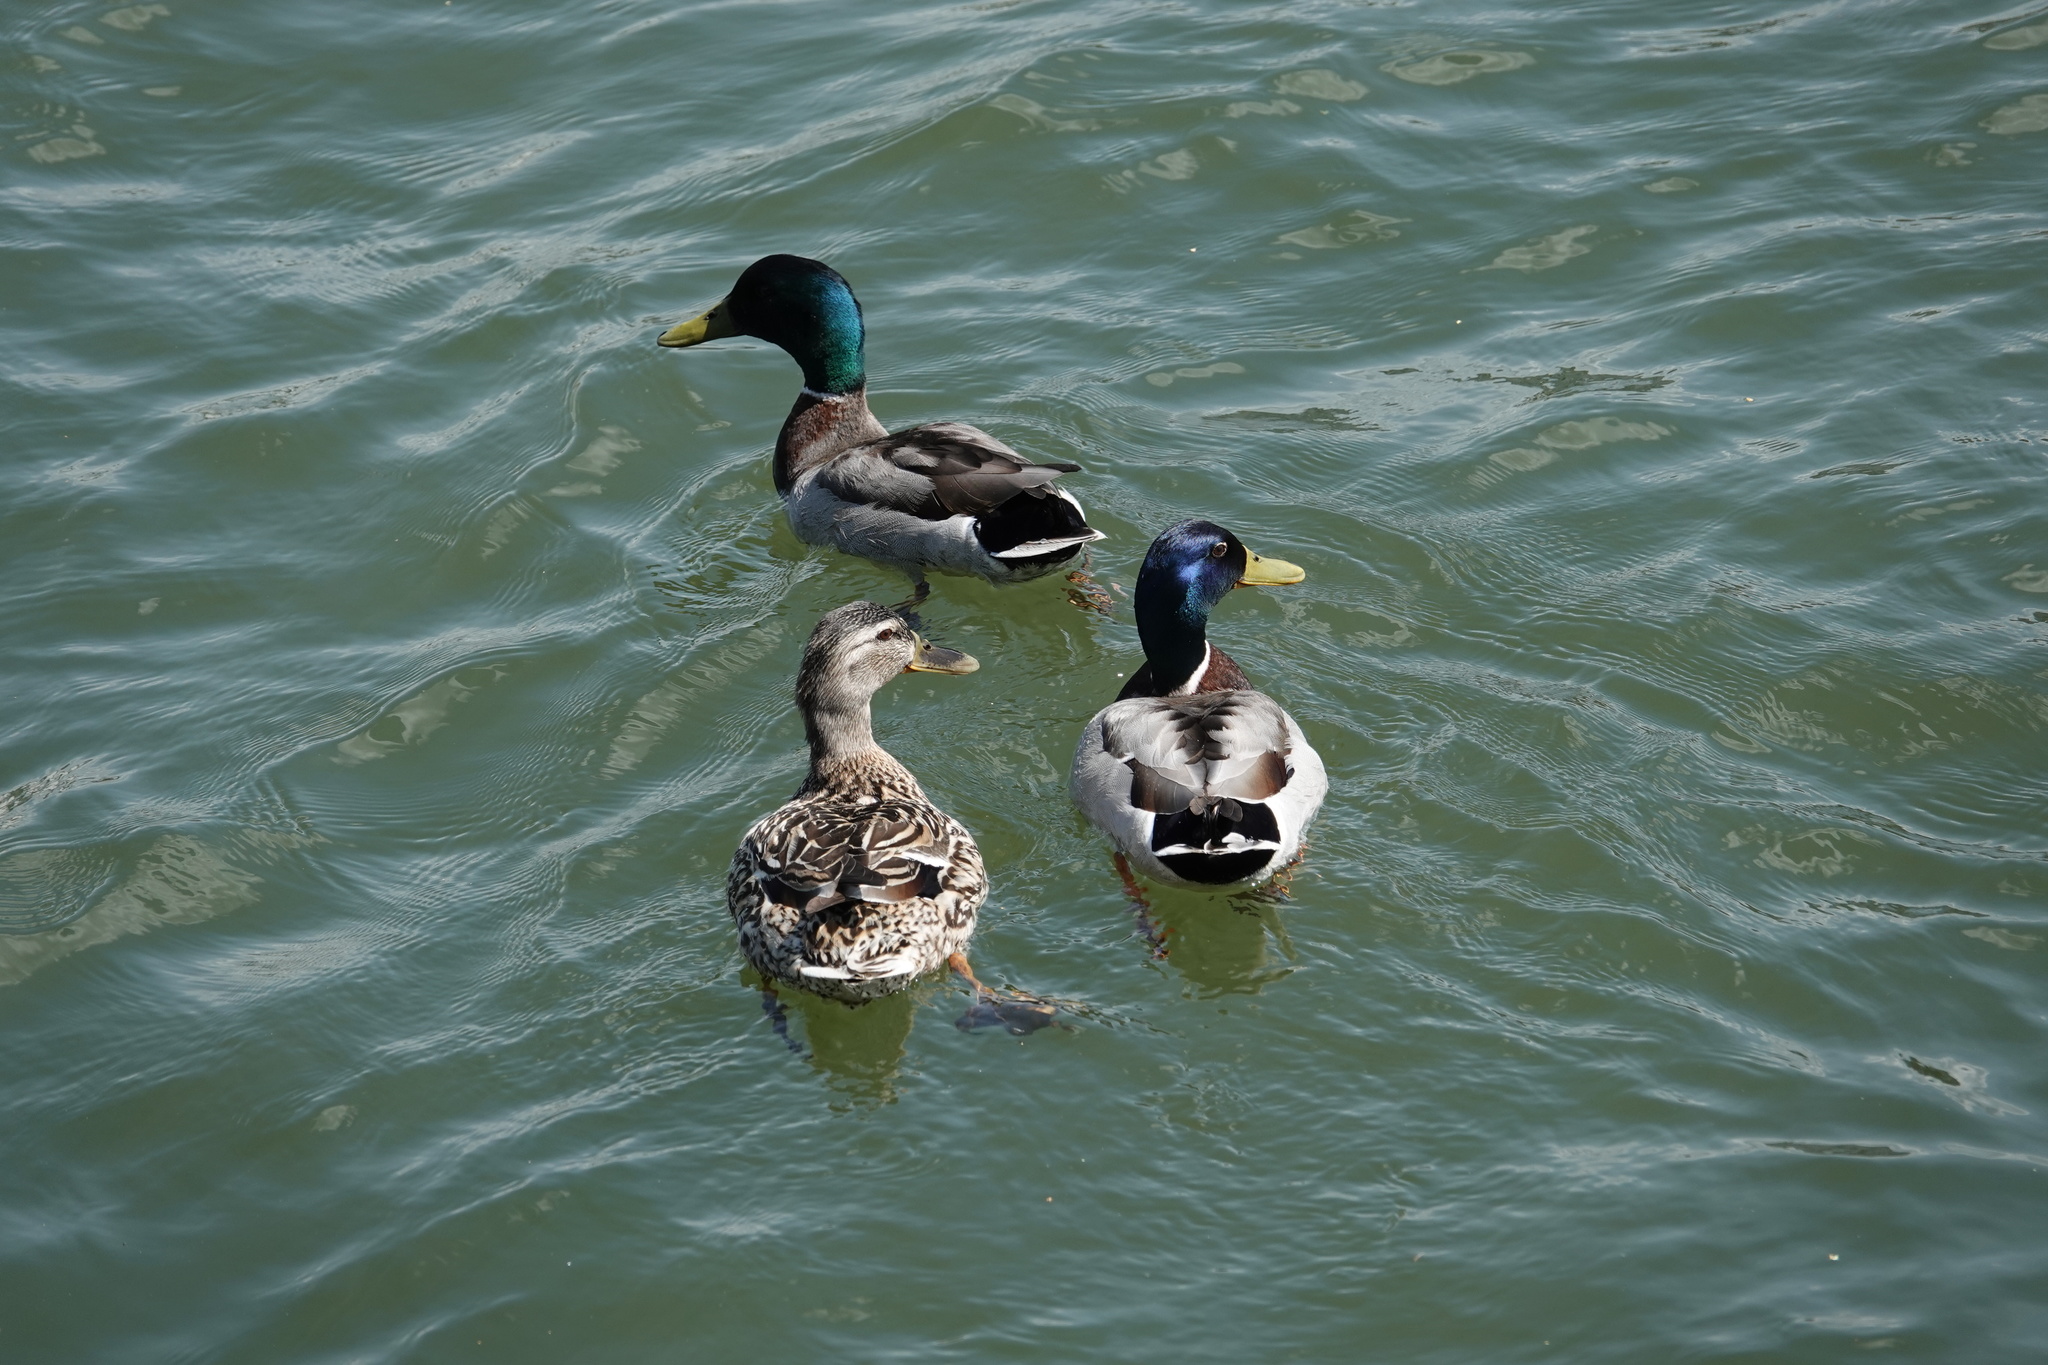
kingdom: Animalia
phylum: Chordata
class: Aves
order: Anseriformes
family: Anatidae
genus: Anas
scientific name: Anas platyrhynchos
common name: Mallard
